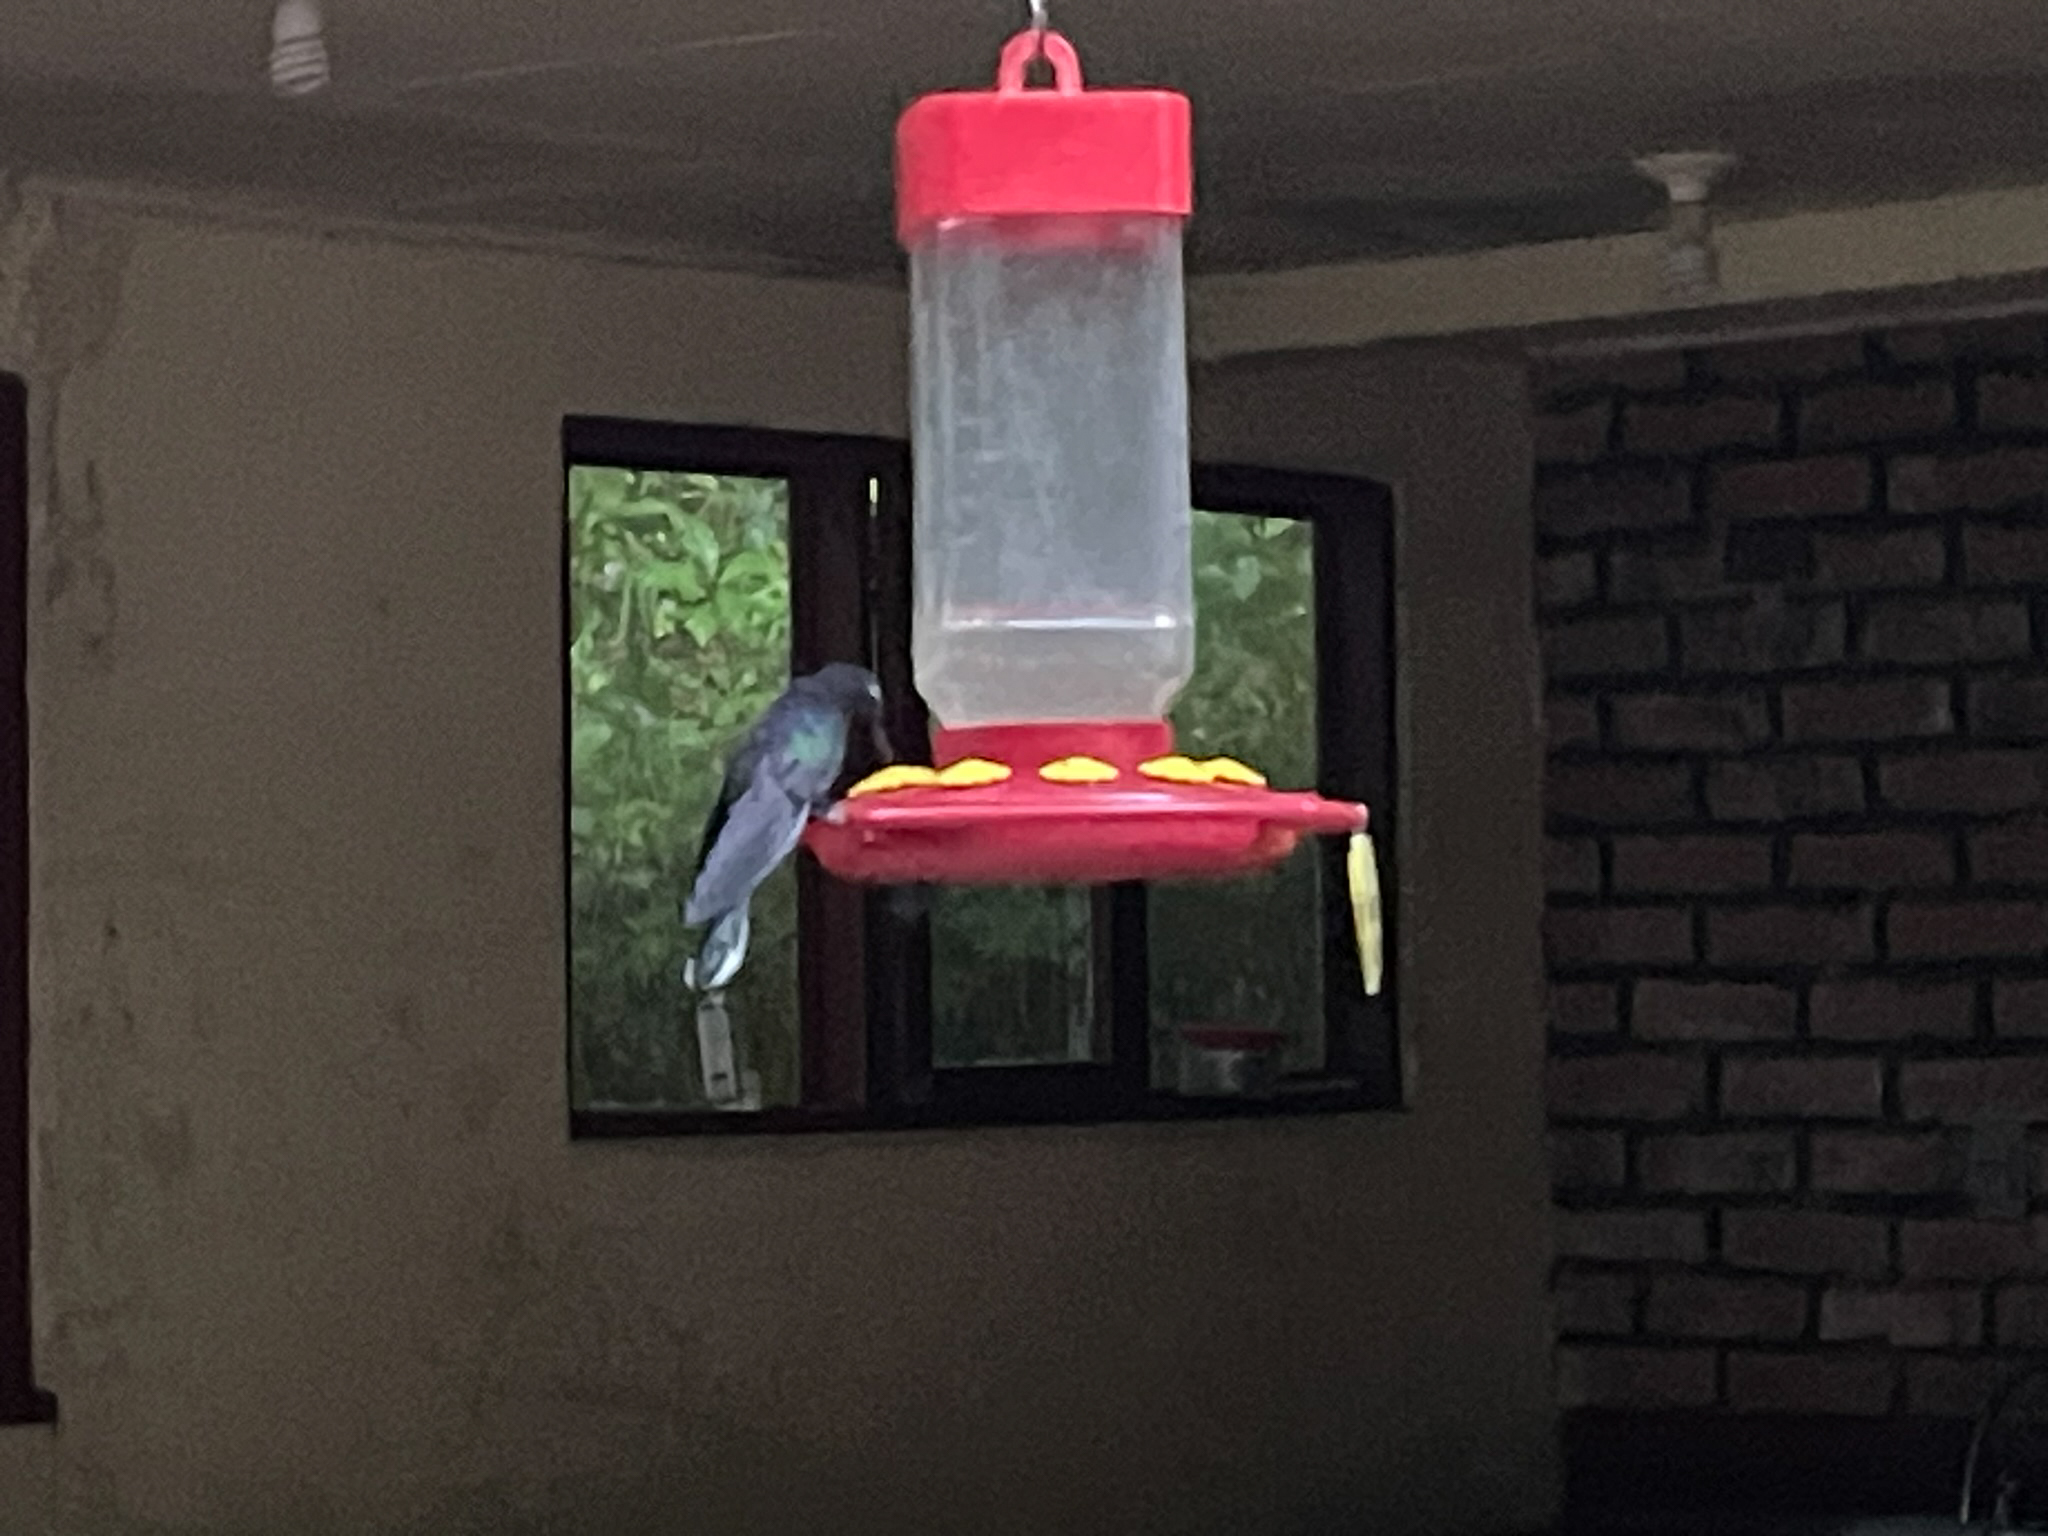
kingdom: Animalia
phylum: Chordata
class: Aves
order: Apodiformes
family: Trochilidae
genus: Campylopterus
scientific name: Campylopterus hemileucurus
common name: Violet sabrewing
